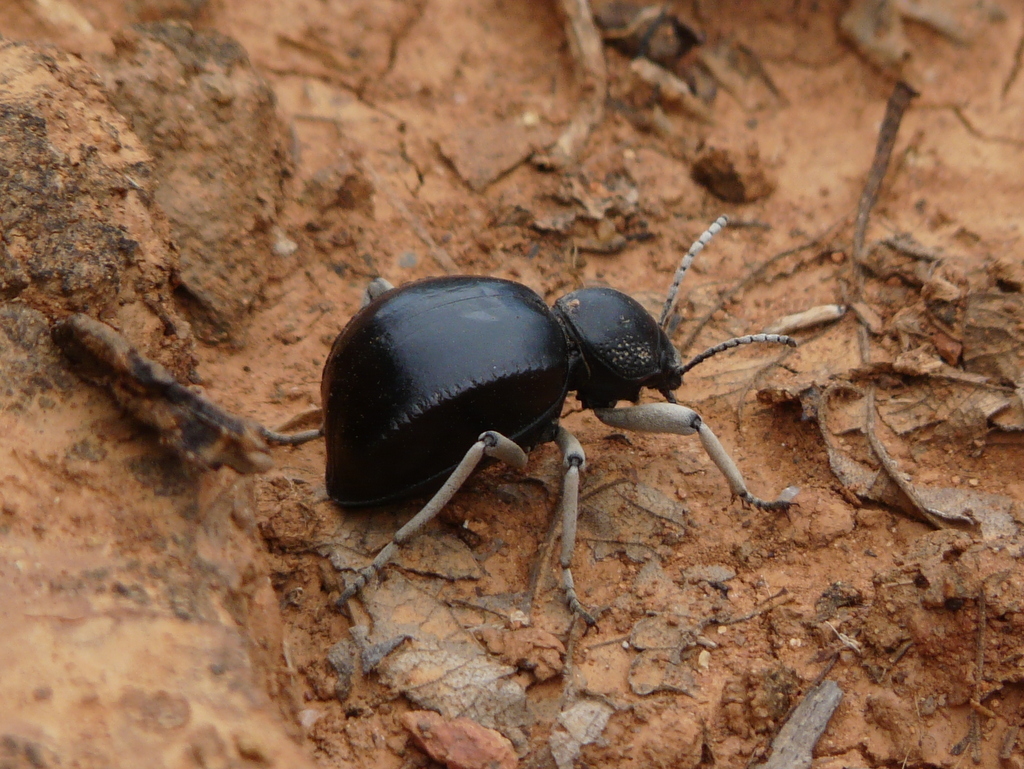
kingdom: Animalia
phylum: Arthropoda
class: Insecta
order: Coleoptera
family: Tenebrionidae
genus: Dichtha
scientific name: Dichtha cubica
